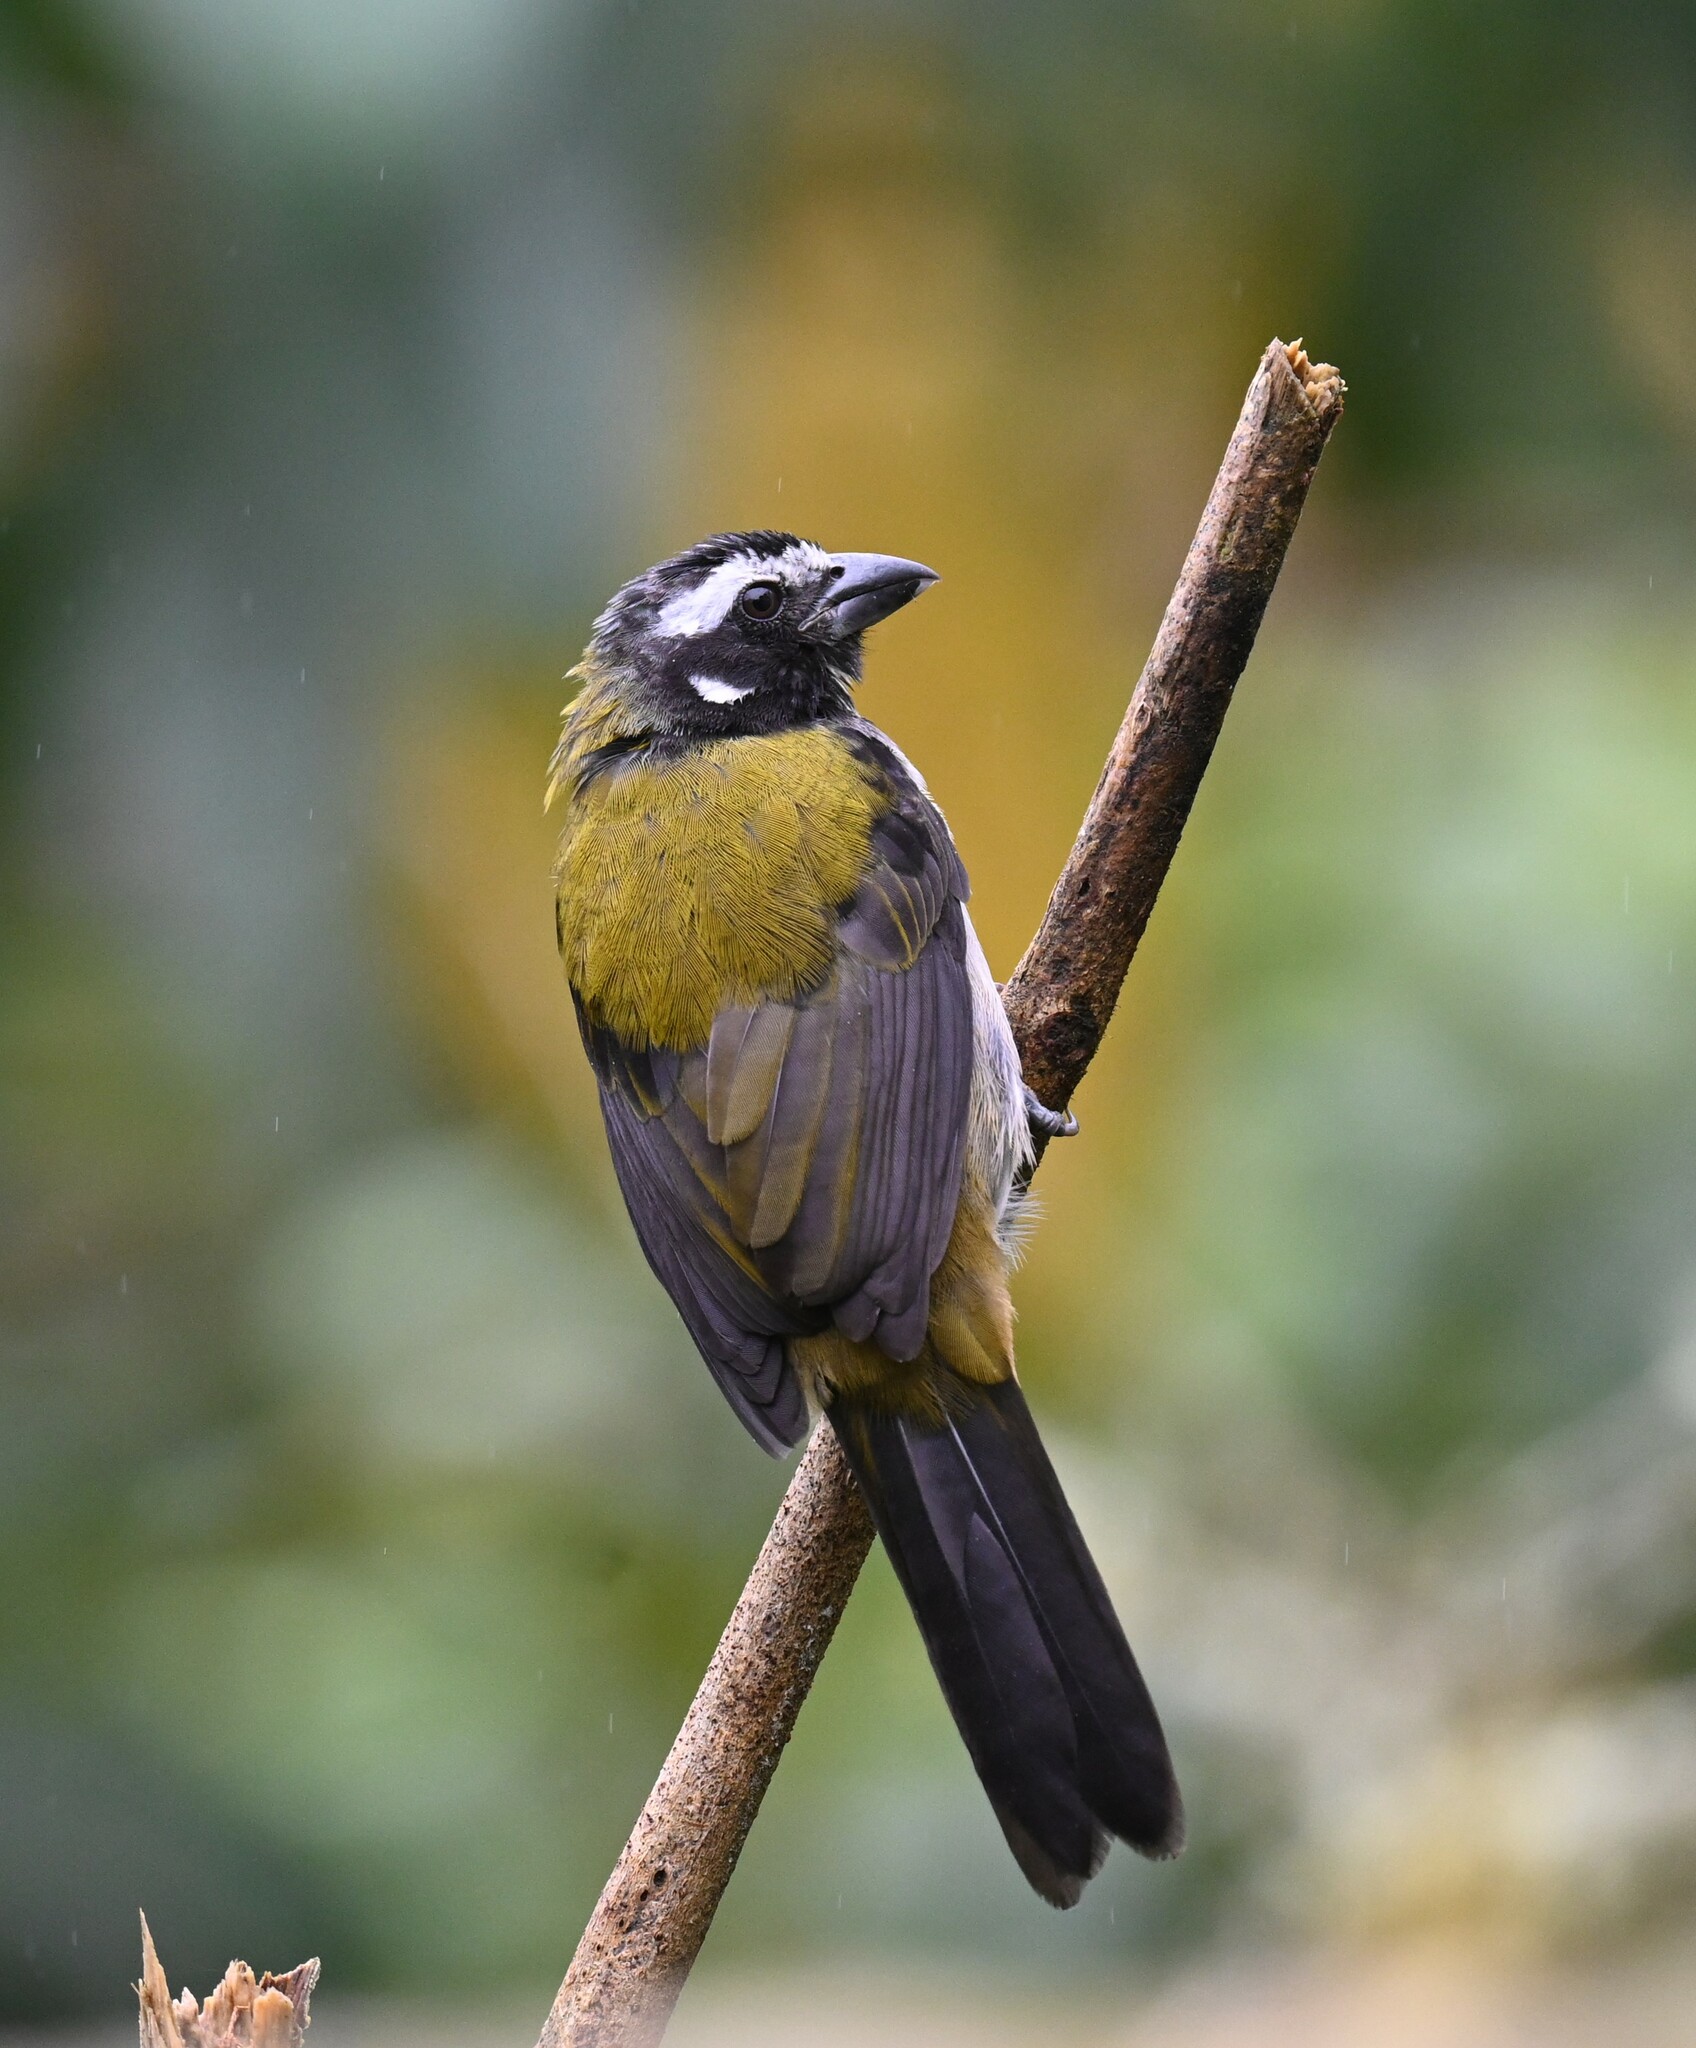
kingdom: Animalia
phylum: Chordata
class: Aves
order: Passeriformes
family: Thraupidae
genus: Saltator
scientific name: Saltator atripennis
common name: Black-winged saltator
